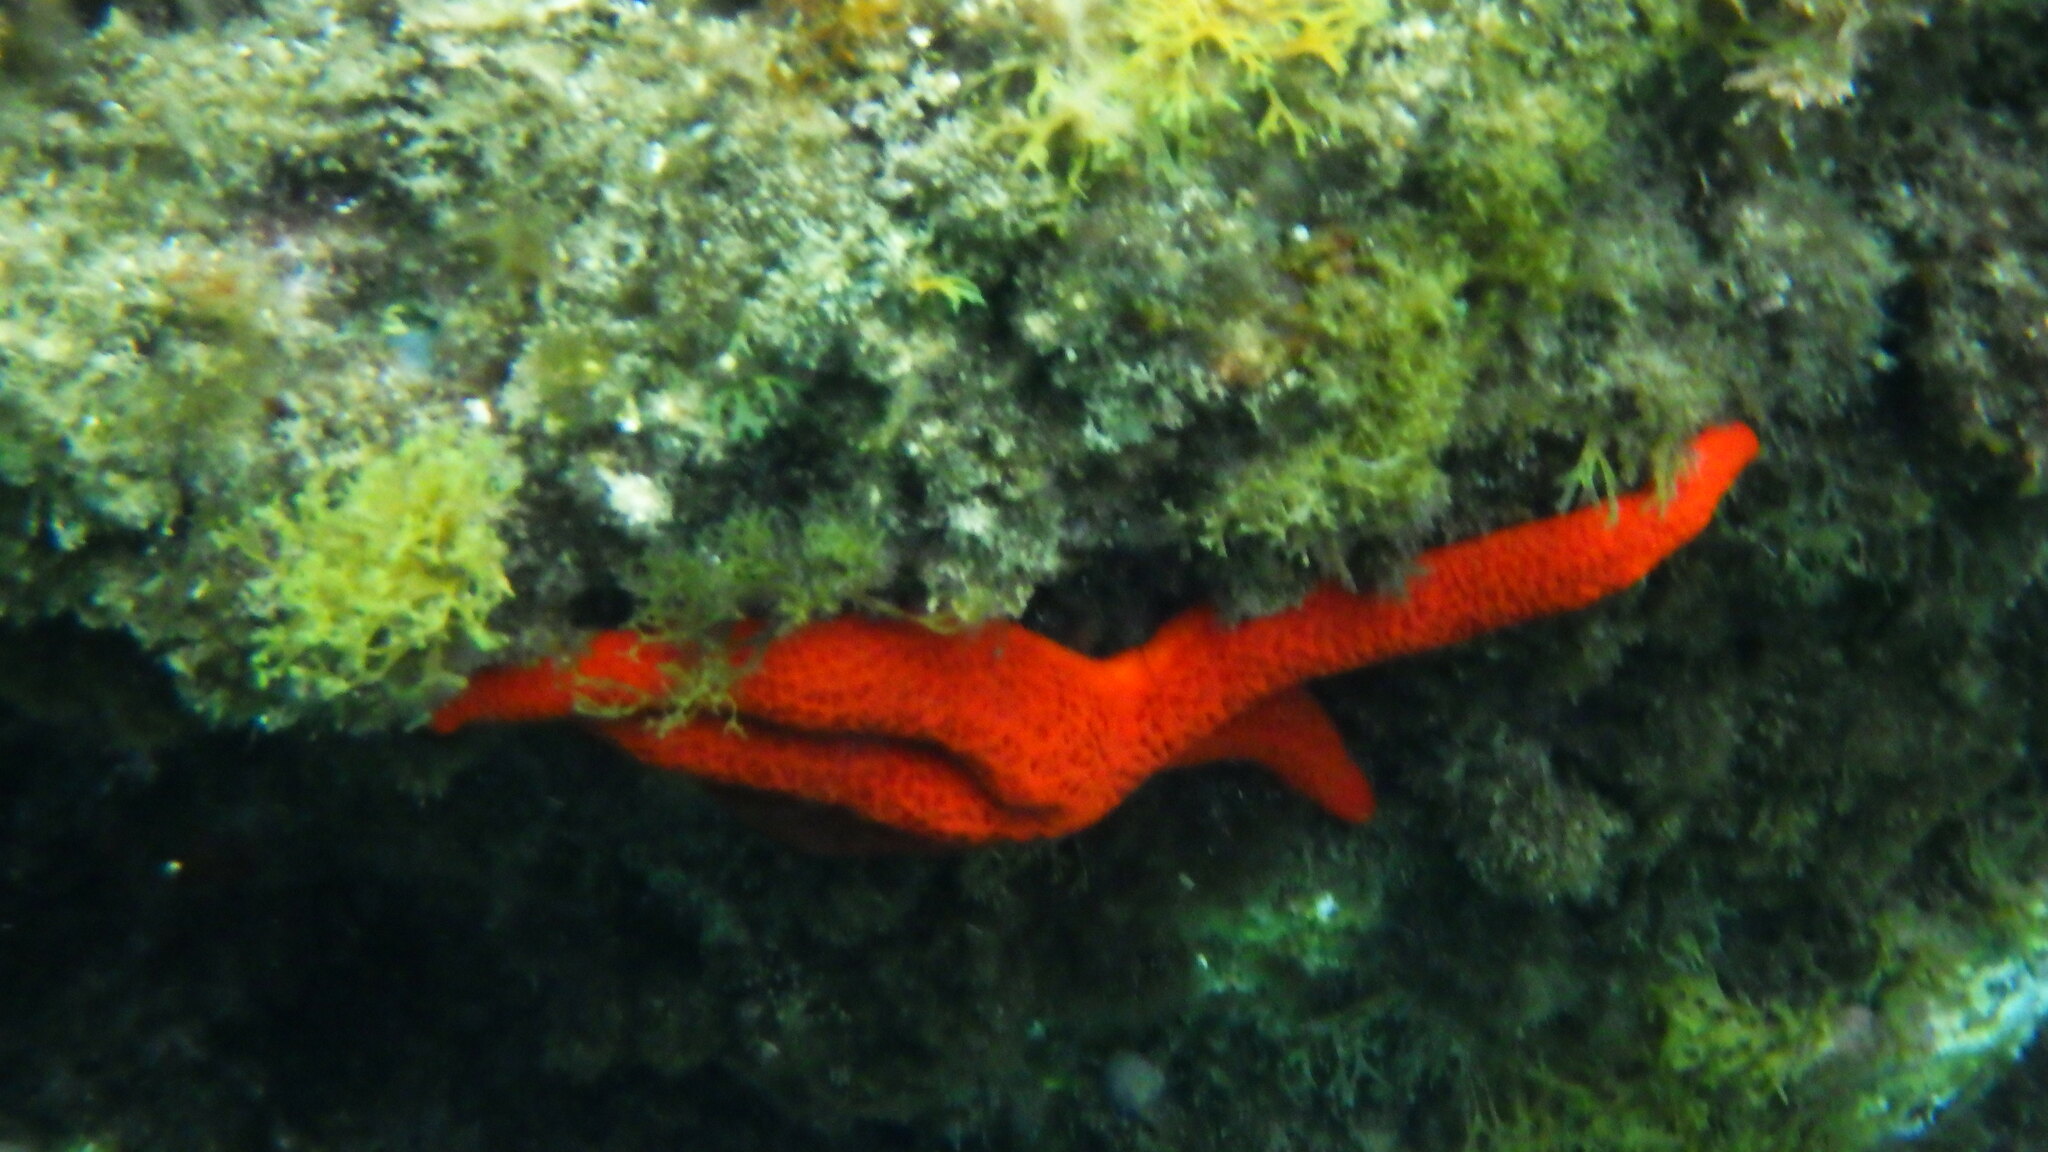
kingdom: Animalia
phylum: Echinodermata
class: Asteroidea
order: Spinulosida
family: Echinasteridae
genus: Echinaster
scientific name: Echinaster sepositus
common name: Red starfish
